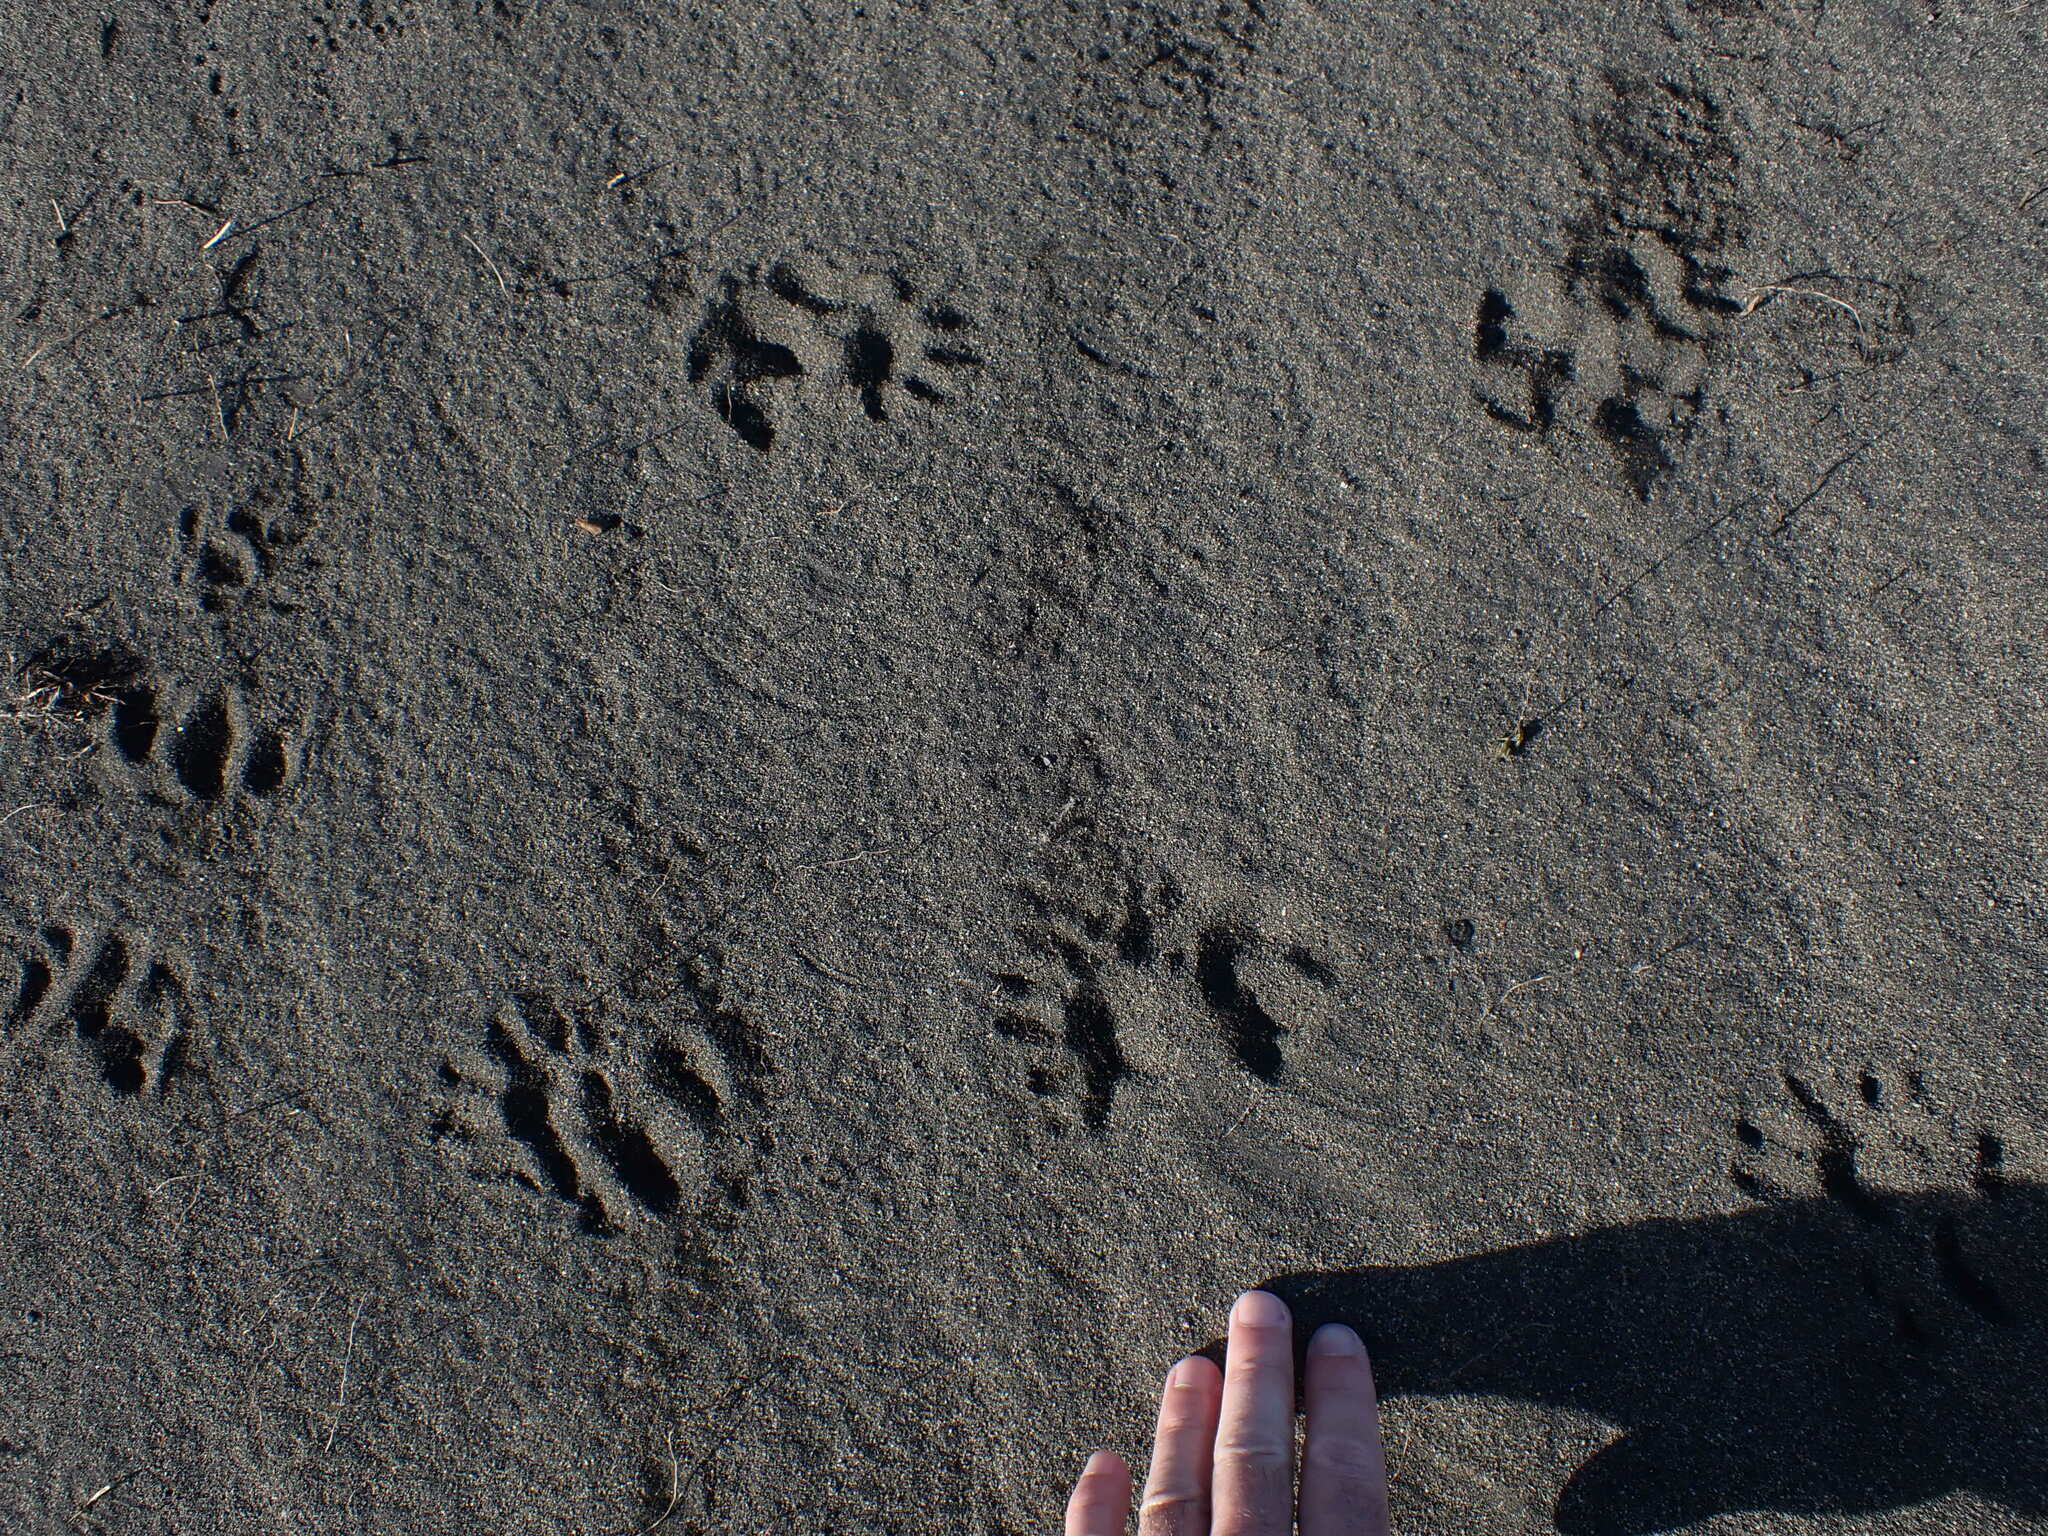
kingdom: Animalia
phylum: Chordata
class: Mammalia
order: Diprotodontia
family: Phalangeridae
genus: Trichosurus
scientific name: Trichosurus vulpecula
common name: Common brushtail
